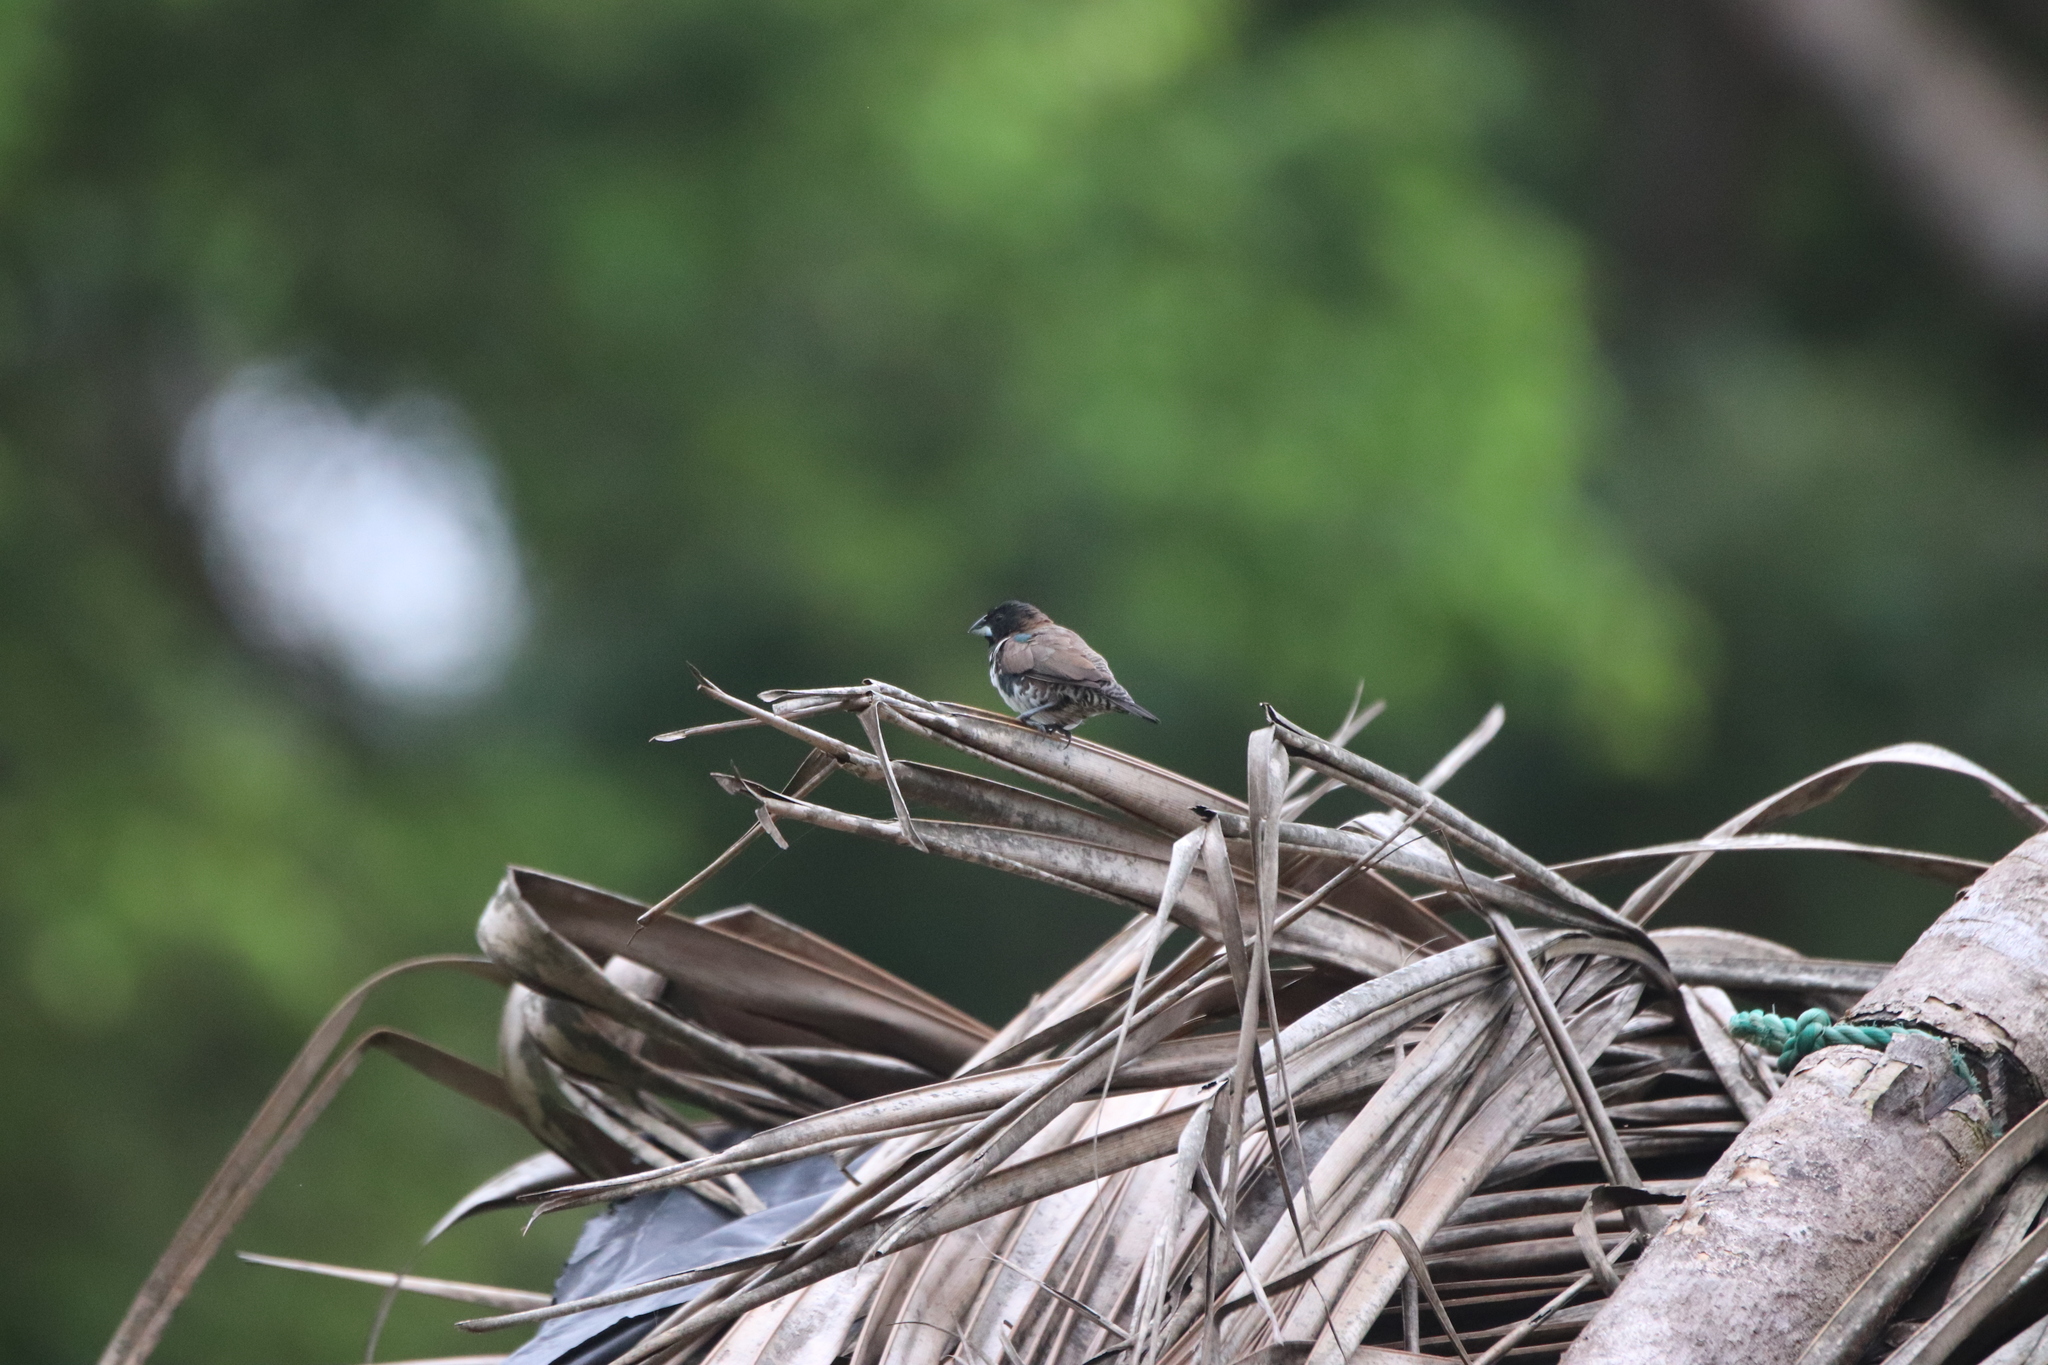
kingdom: Animalia
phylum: Chordata
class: Aves
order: Passeriformes
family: Estrildidae
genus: Lonchura
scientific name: Lonchura cucullata
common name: Bronze mannikin
